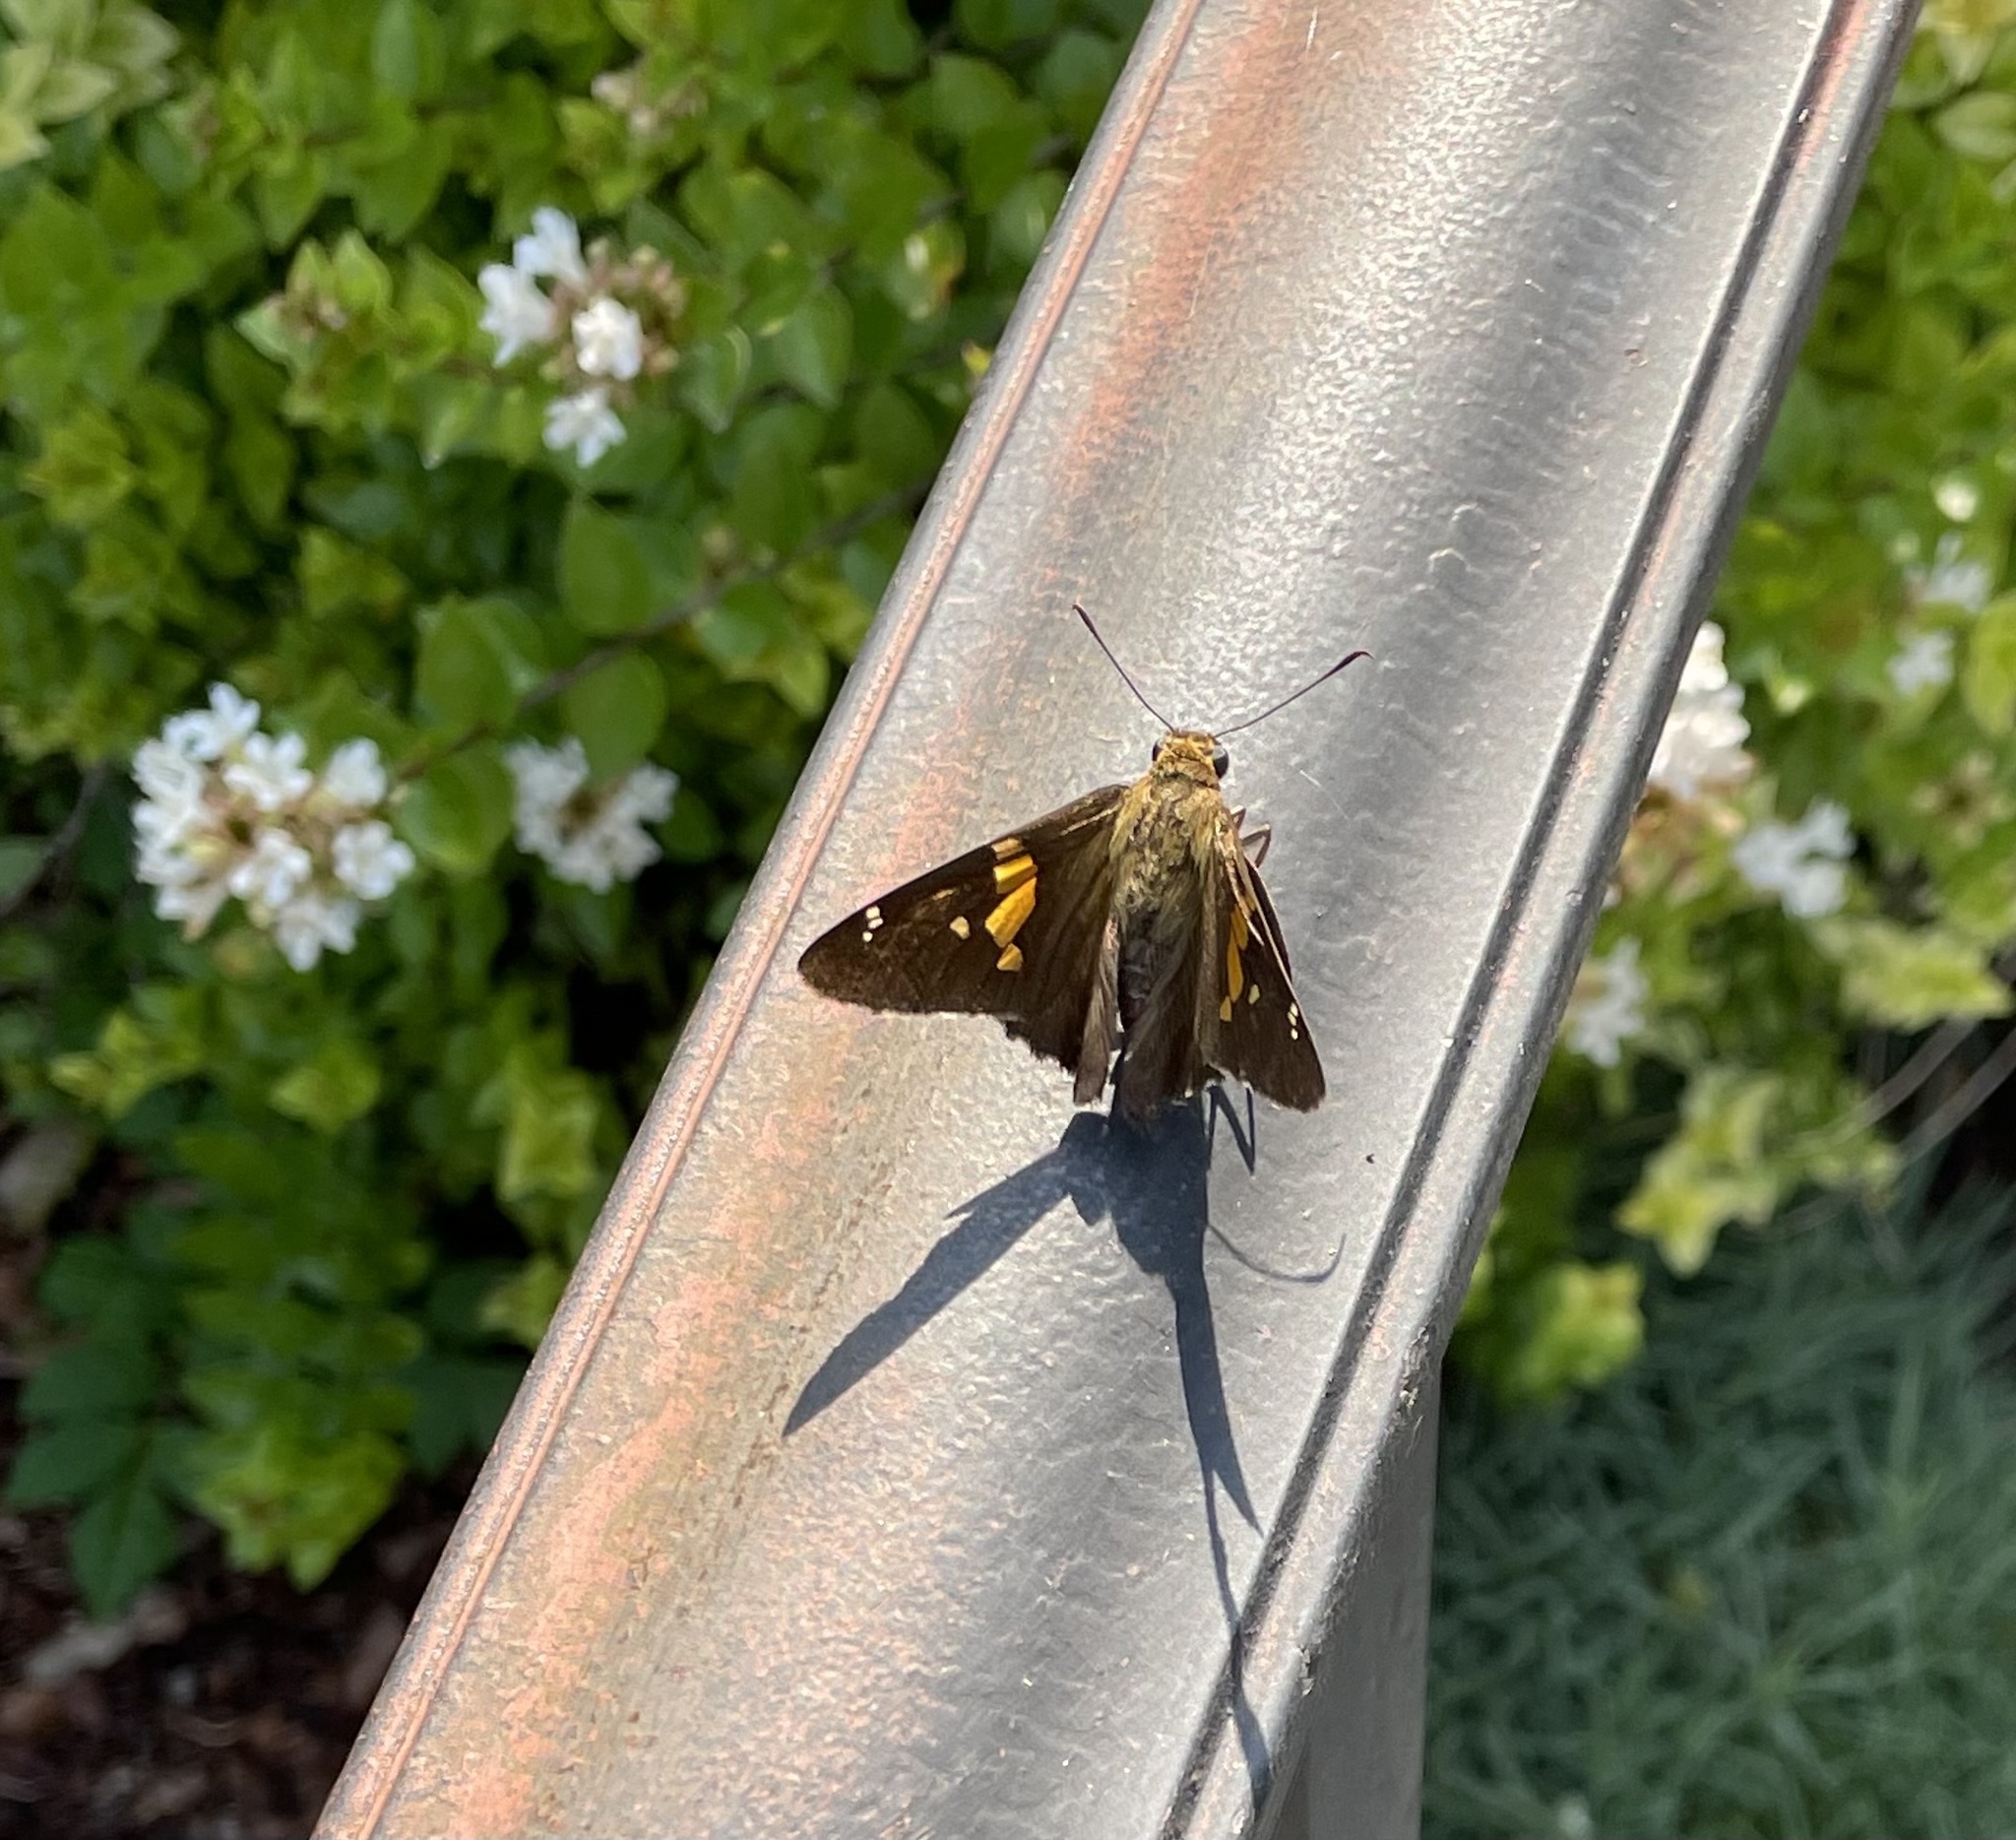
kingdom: Animalia
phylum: Arthropoda
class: Insecta
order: Lepidoptera
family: Hesperiidae
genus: Epargyreus
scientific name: Epargyreus clarus
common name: Silver-spotted skipper
